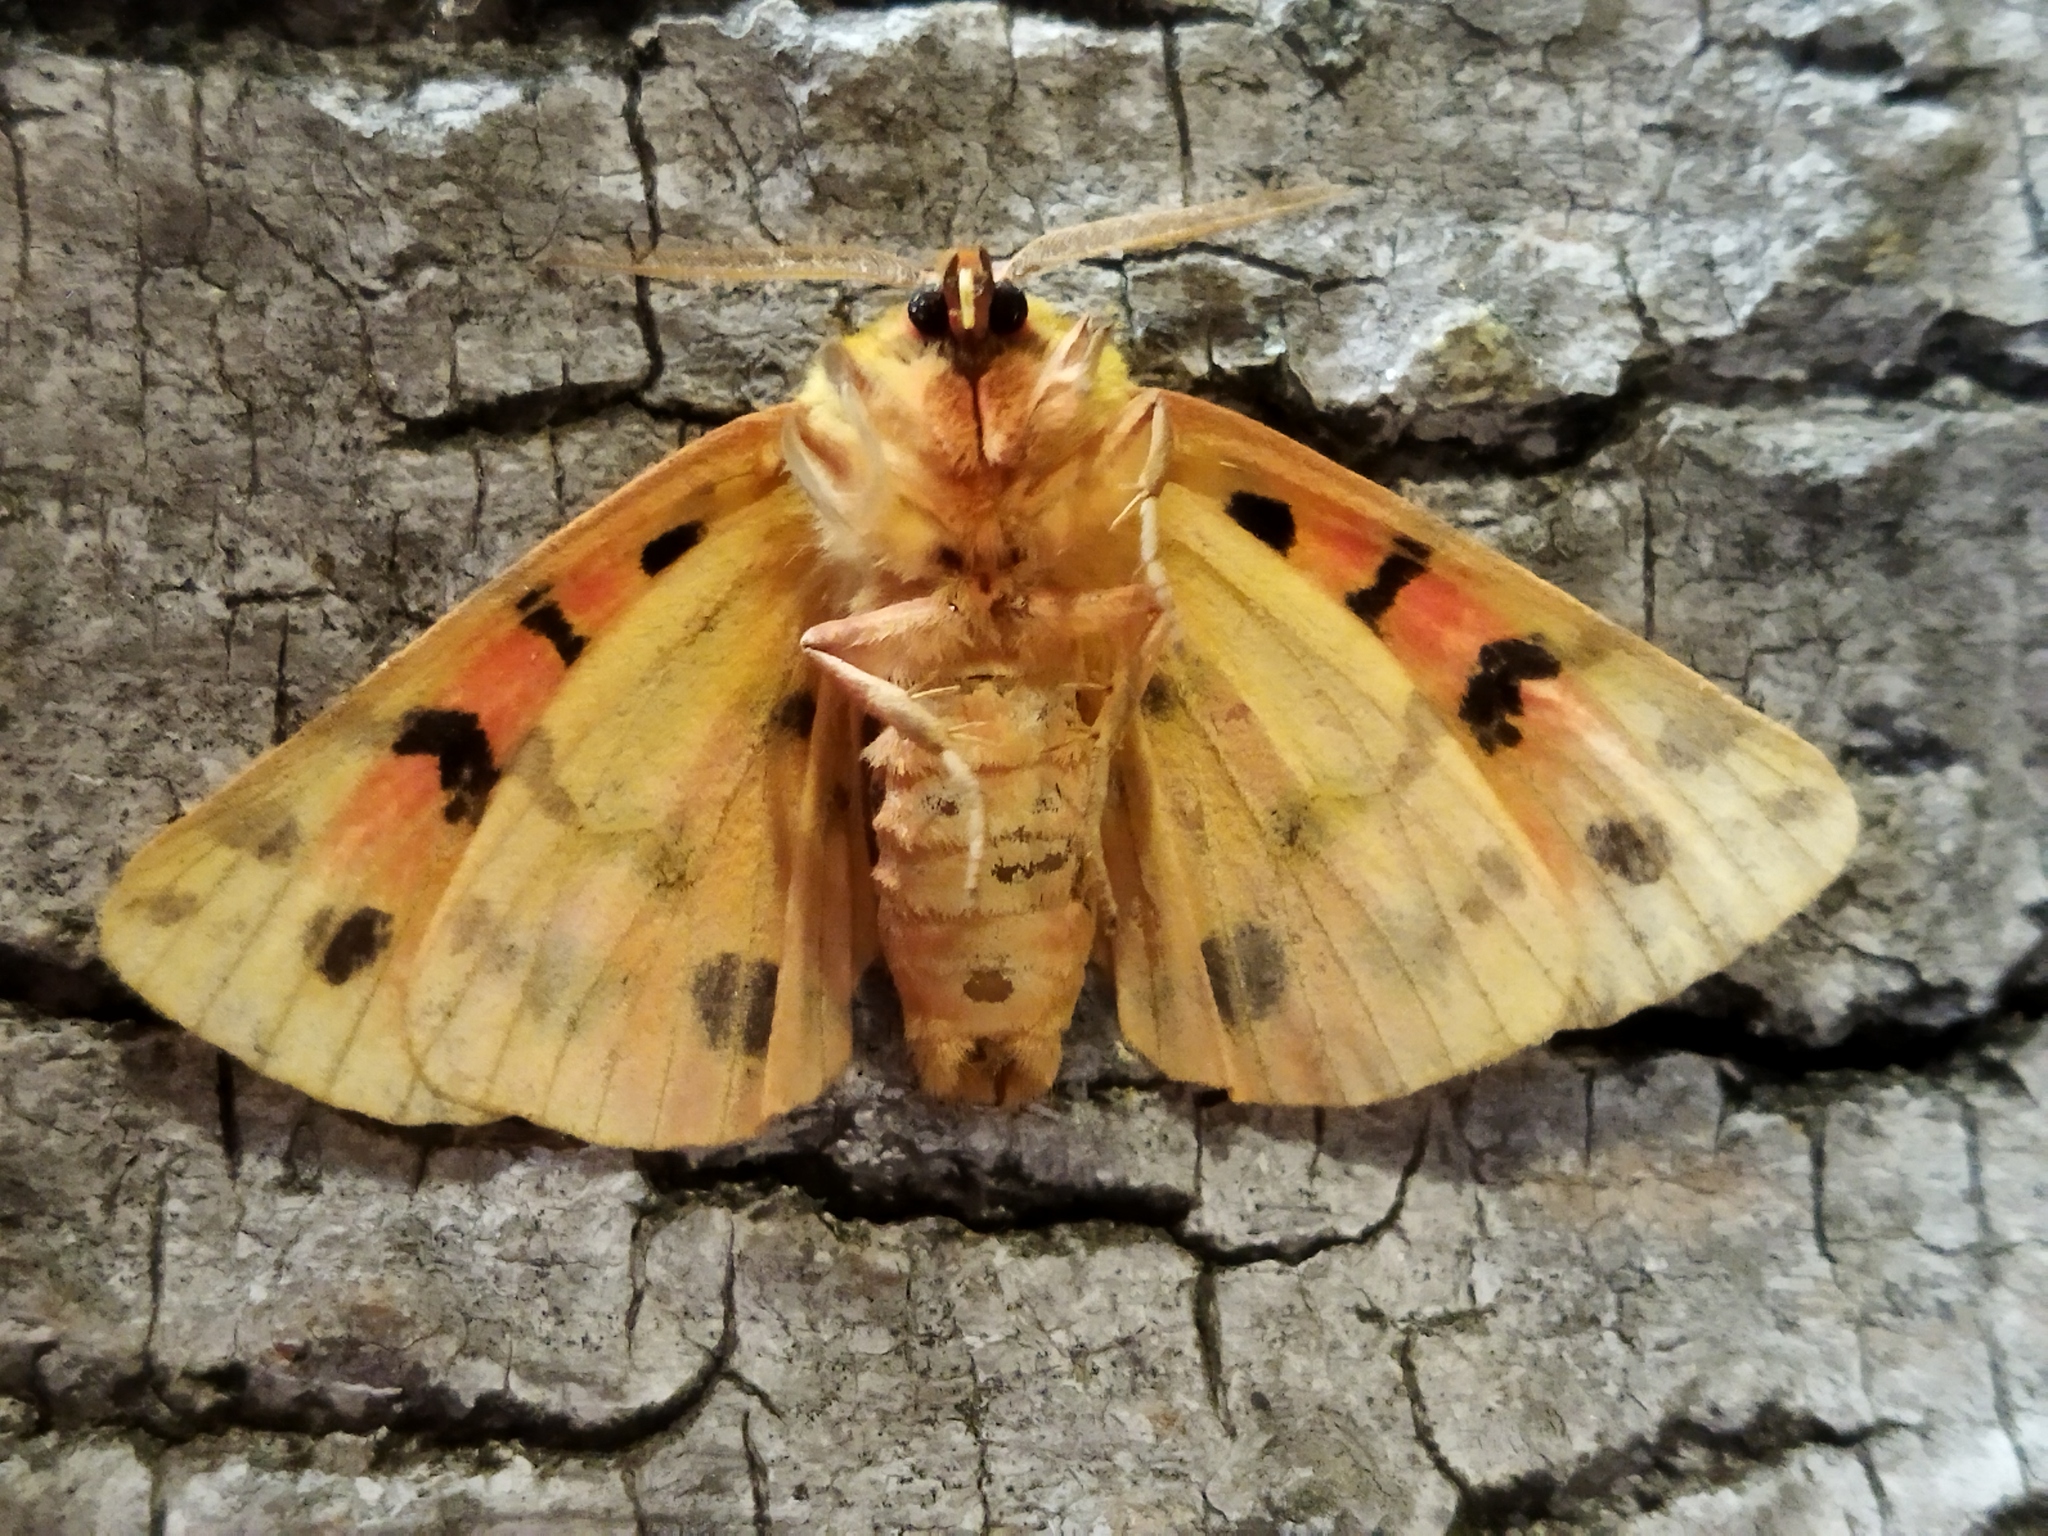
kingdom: Animalia
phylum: Arthropoda
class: Insecta
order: Lepidoptera
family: Erebidae
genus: Rhyparia
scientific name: Rhyparia purpurata
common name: Purple tiger
